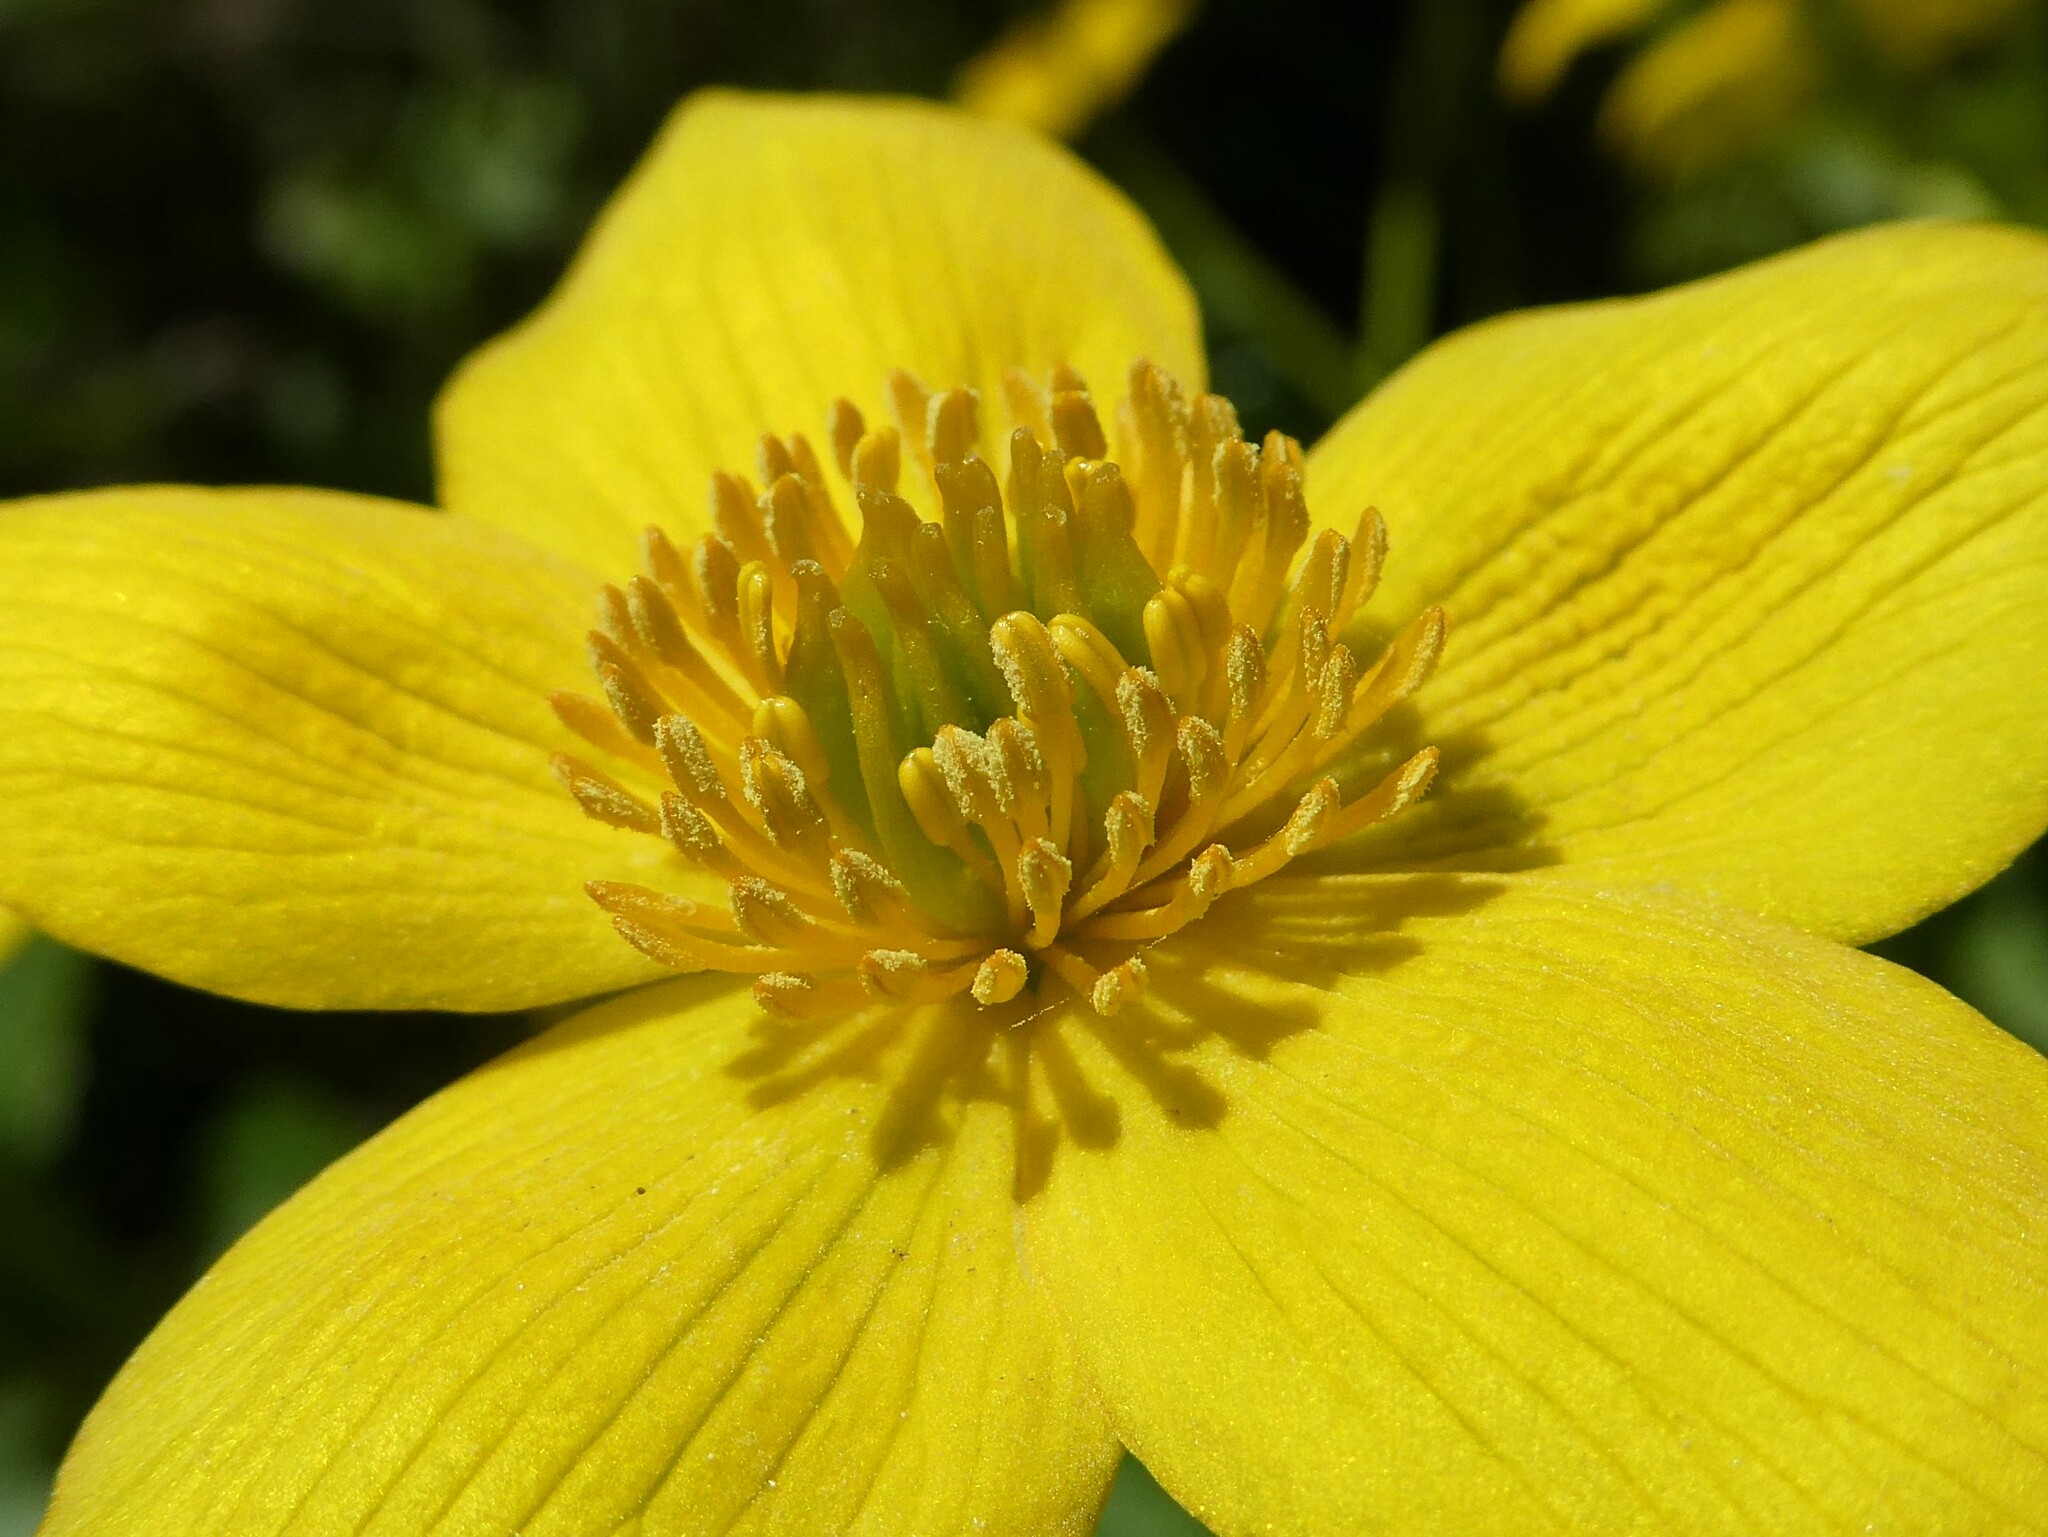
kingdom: Plantae
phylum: Tracheophyta
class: Magnoliopsida
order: Ranunculales
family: Ranunculaceae
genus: Caltha
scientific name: Caltha palustris
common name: Marsh marigold
